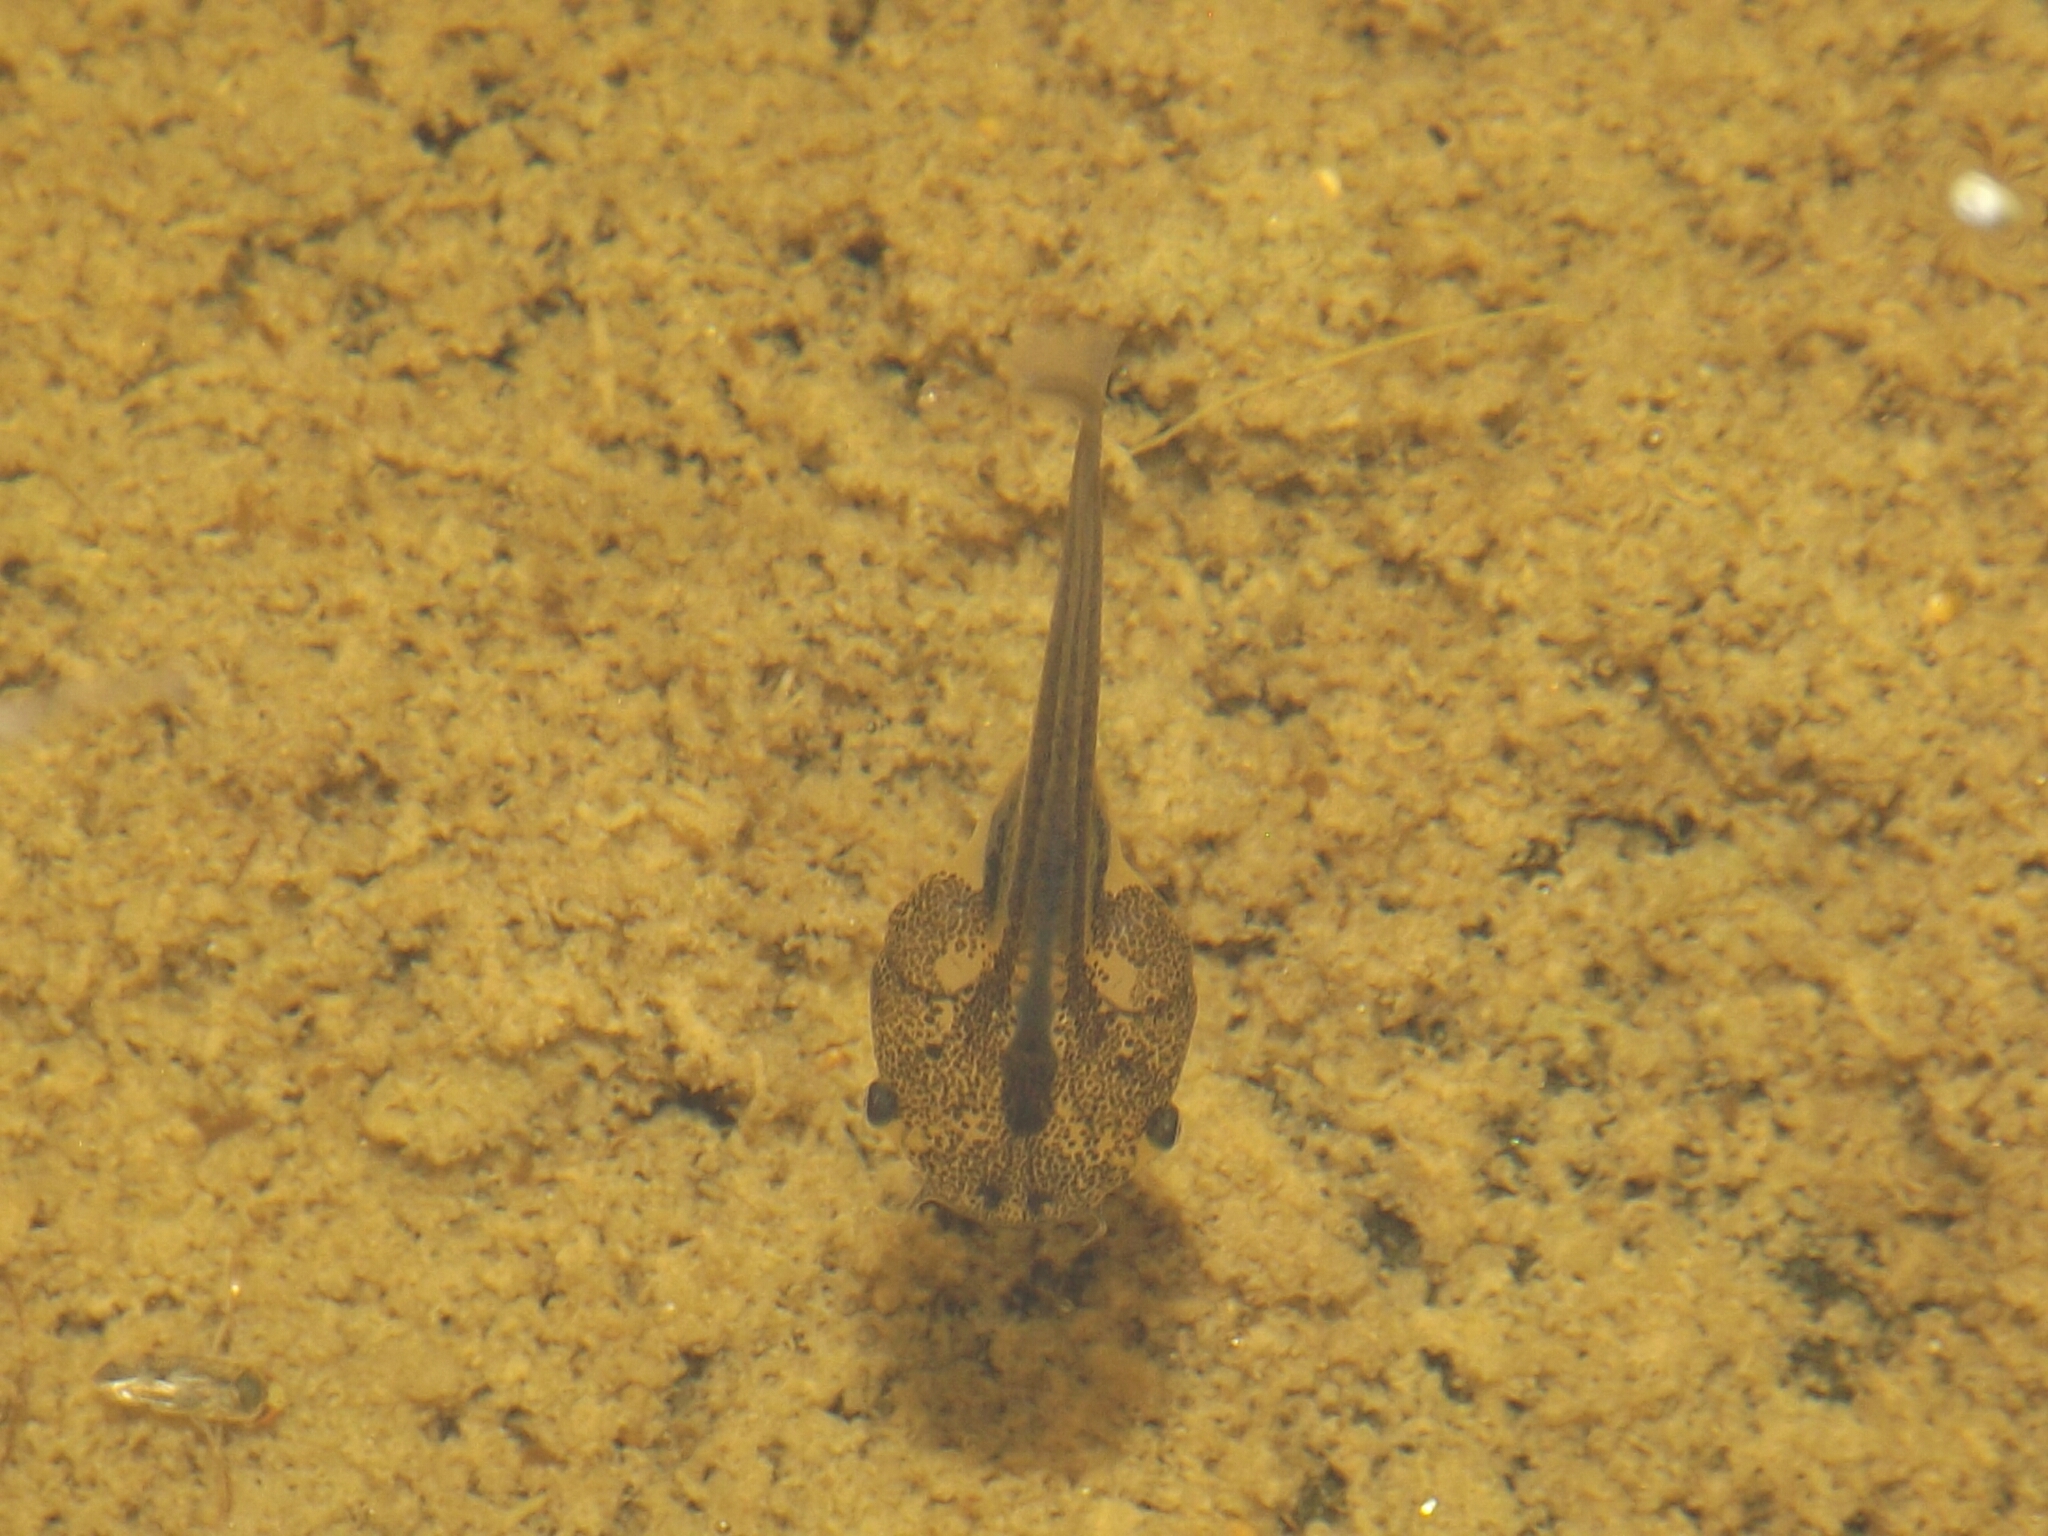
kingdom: Animalia
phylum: Chordata
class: Amphibia
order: Anura
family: Pipidae
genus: Xenopus
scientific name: Xenopus laevis
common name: African clawed frog
